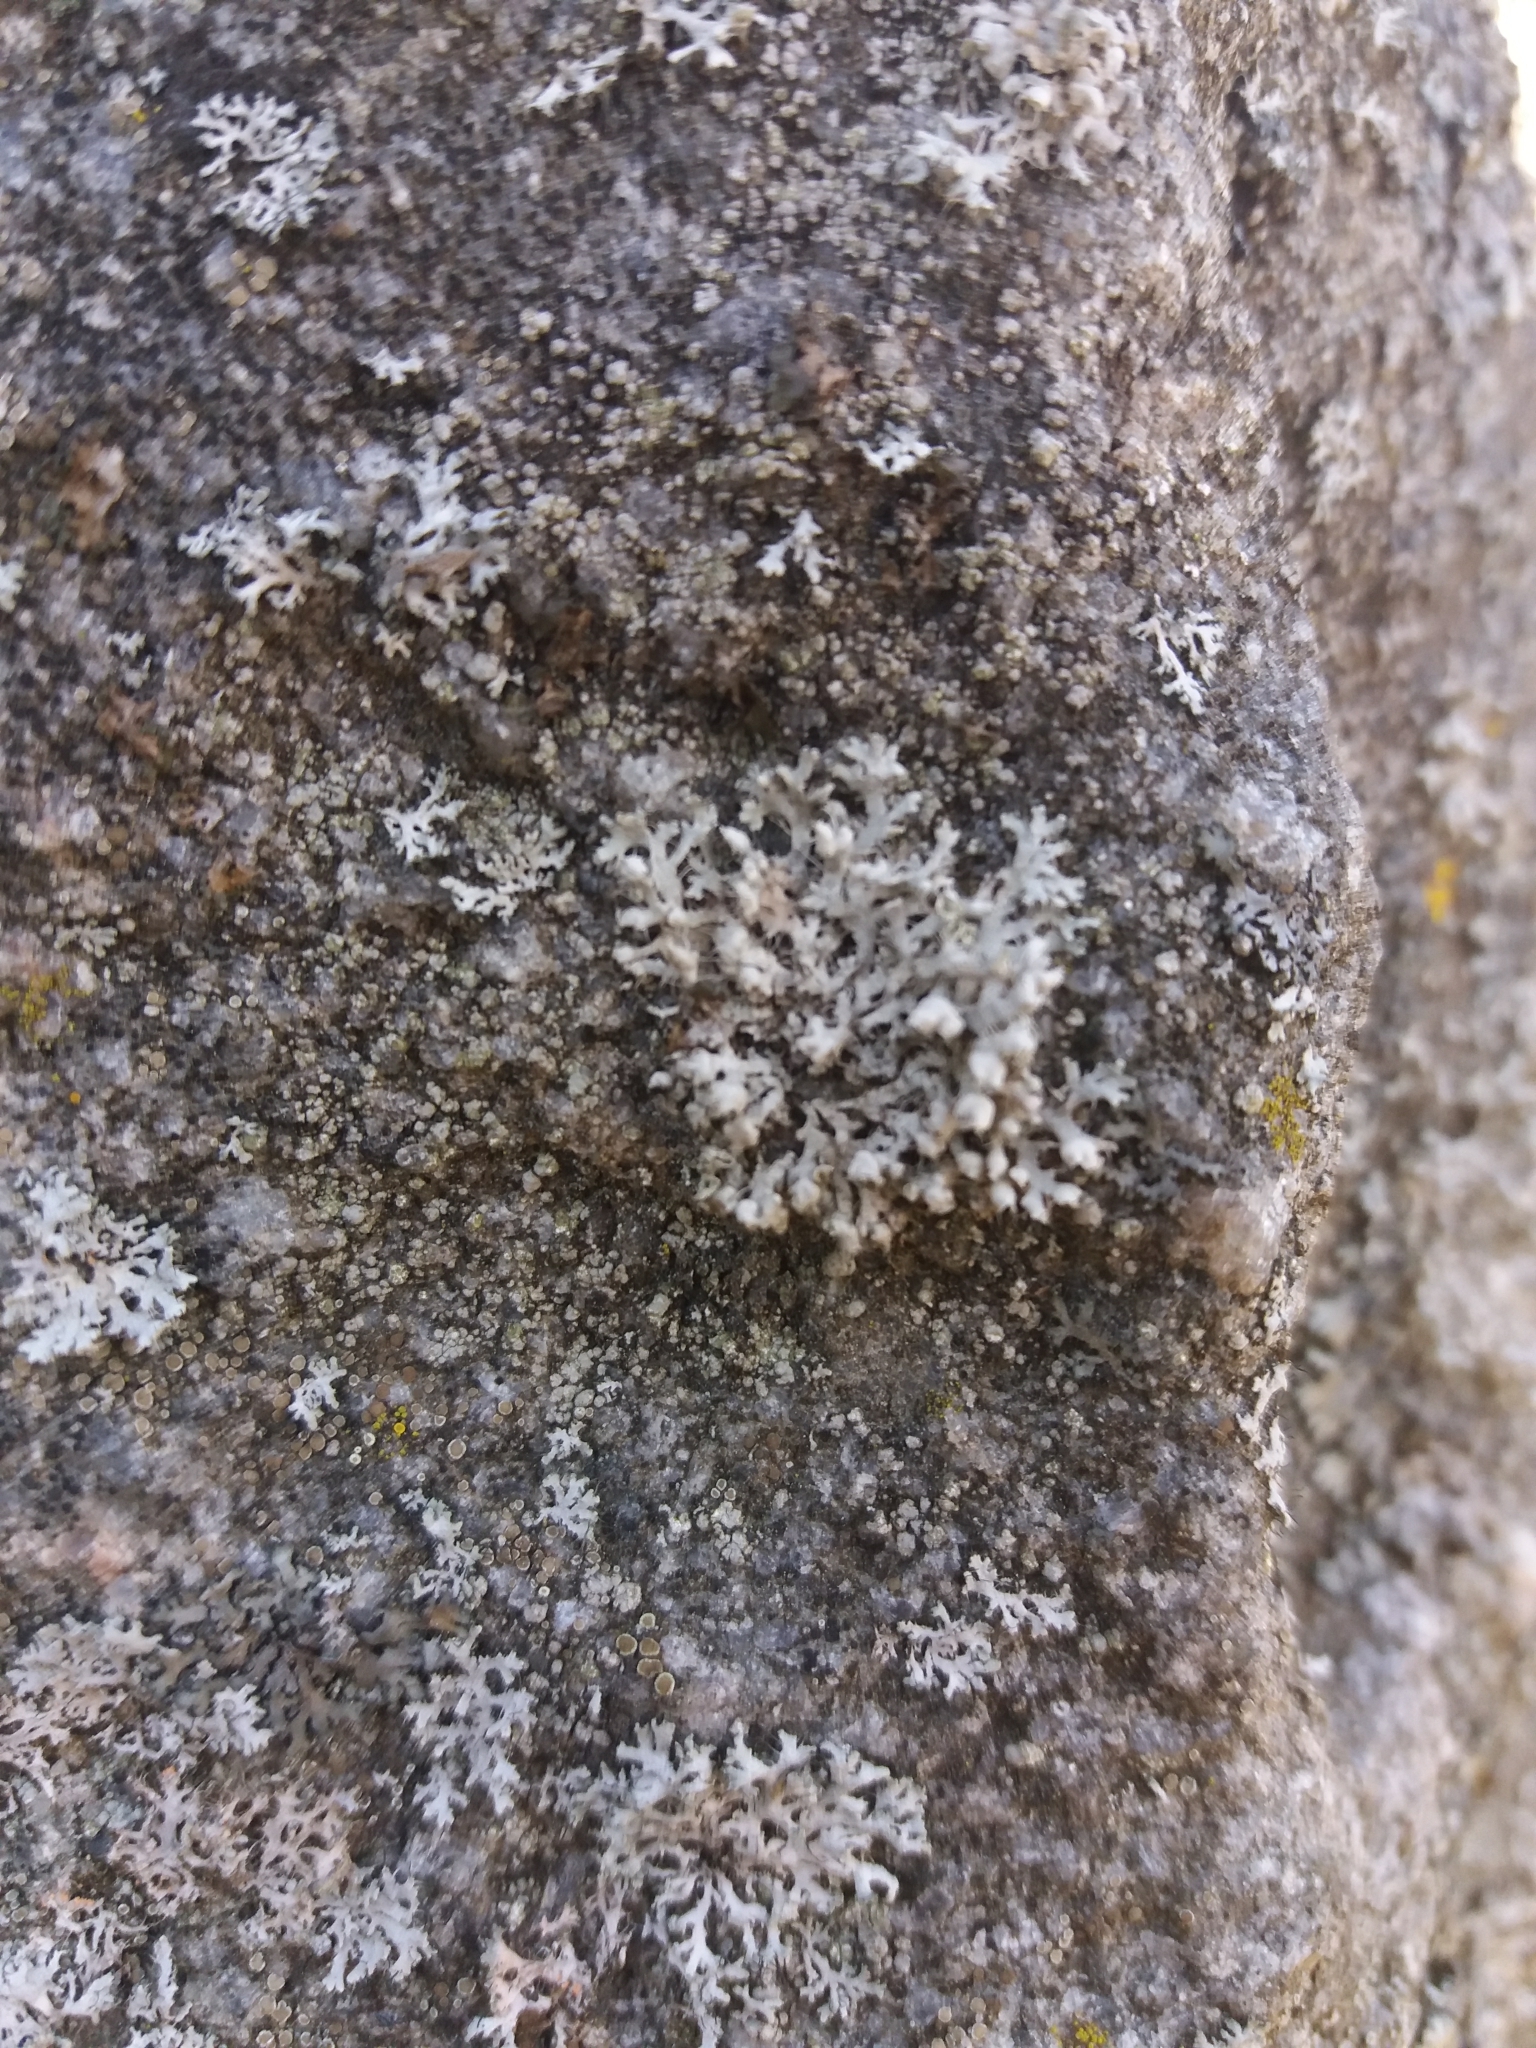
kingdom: Fungi
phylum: Ascomycota
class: Lecanoromycetes
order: Caliciales
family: Physciaceae
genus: Physcia
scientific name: Physcia adscendens
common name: Hooded rosette lichen
